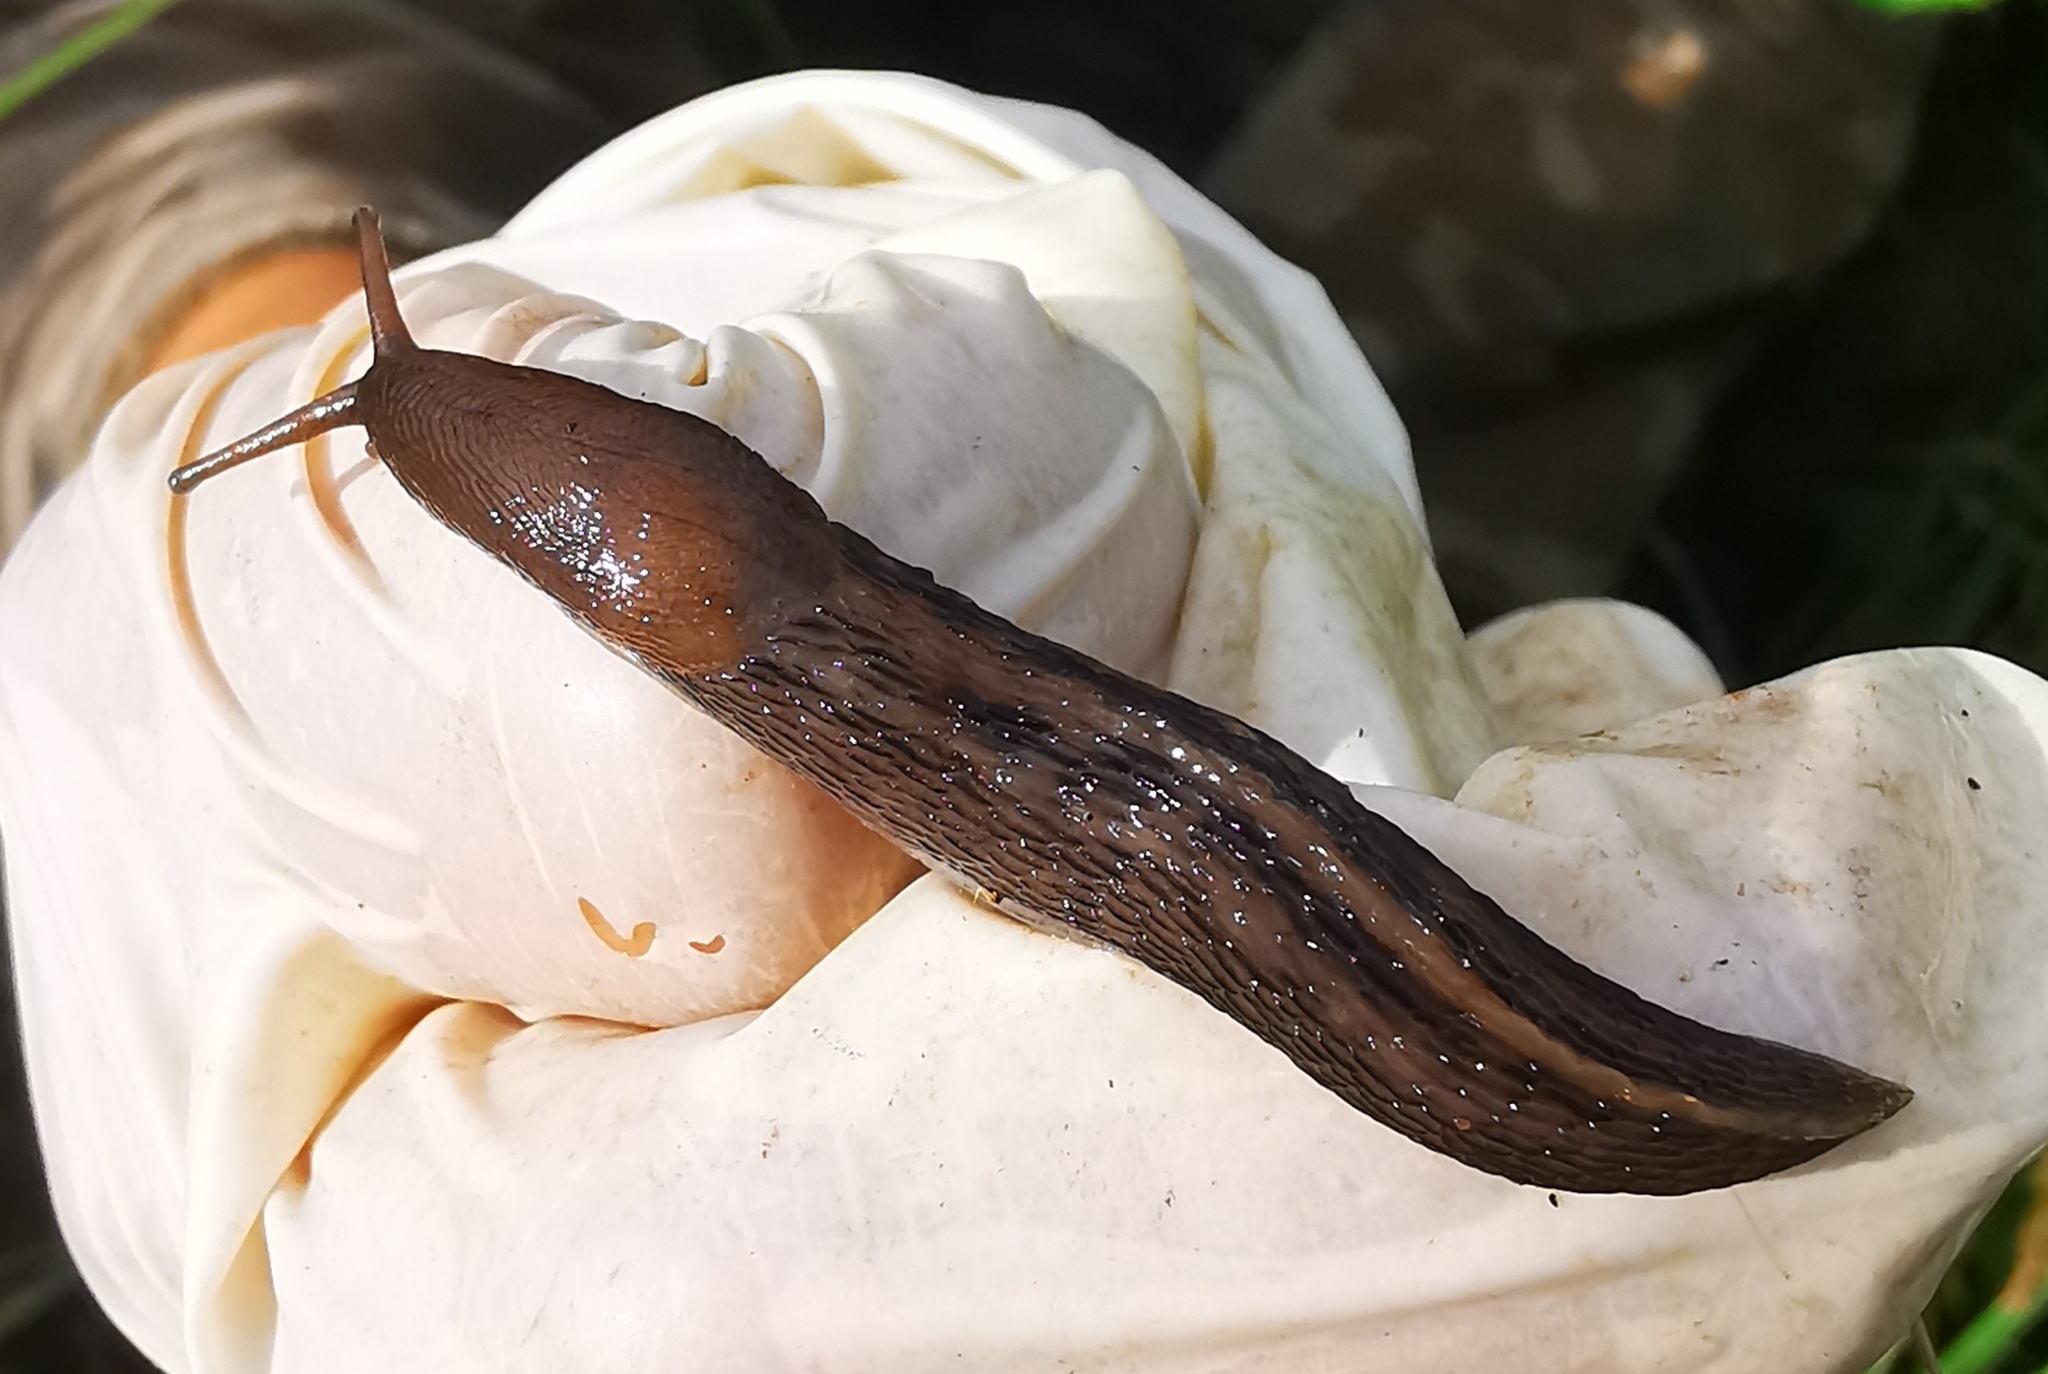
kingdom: Animalia
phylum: Mollusca
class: Gastropoda
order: Stylommatophora
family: Limacidae
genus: Limax
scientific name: Limax cinereoniger
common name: Ash-black slug
